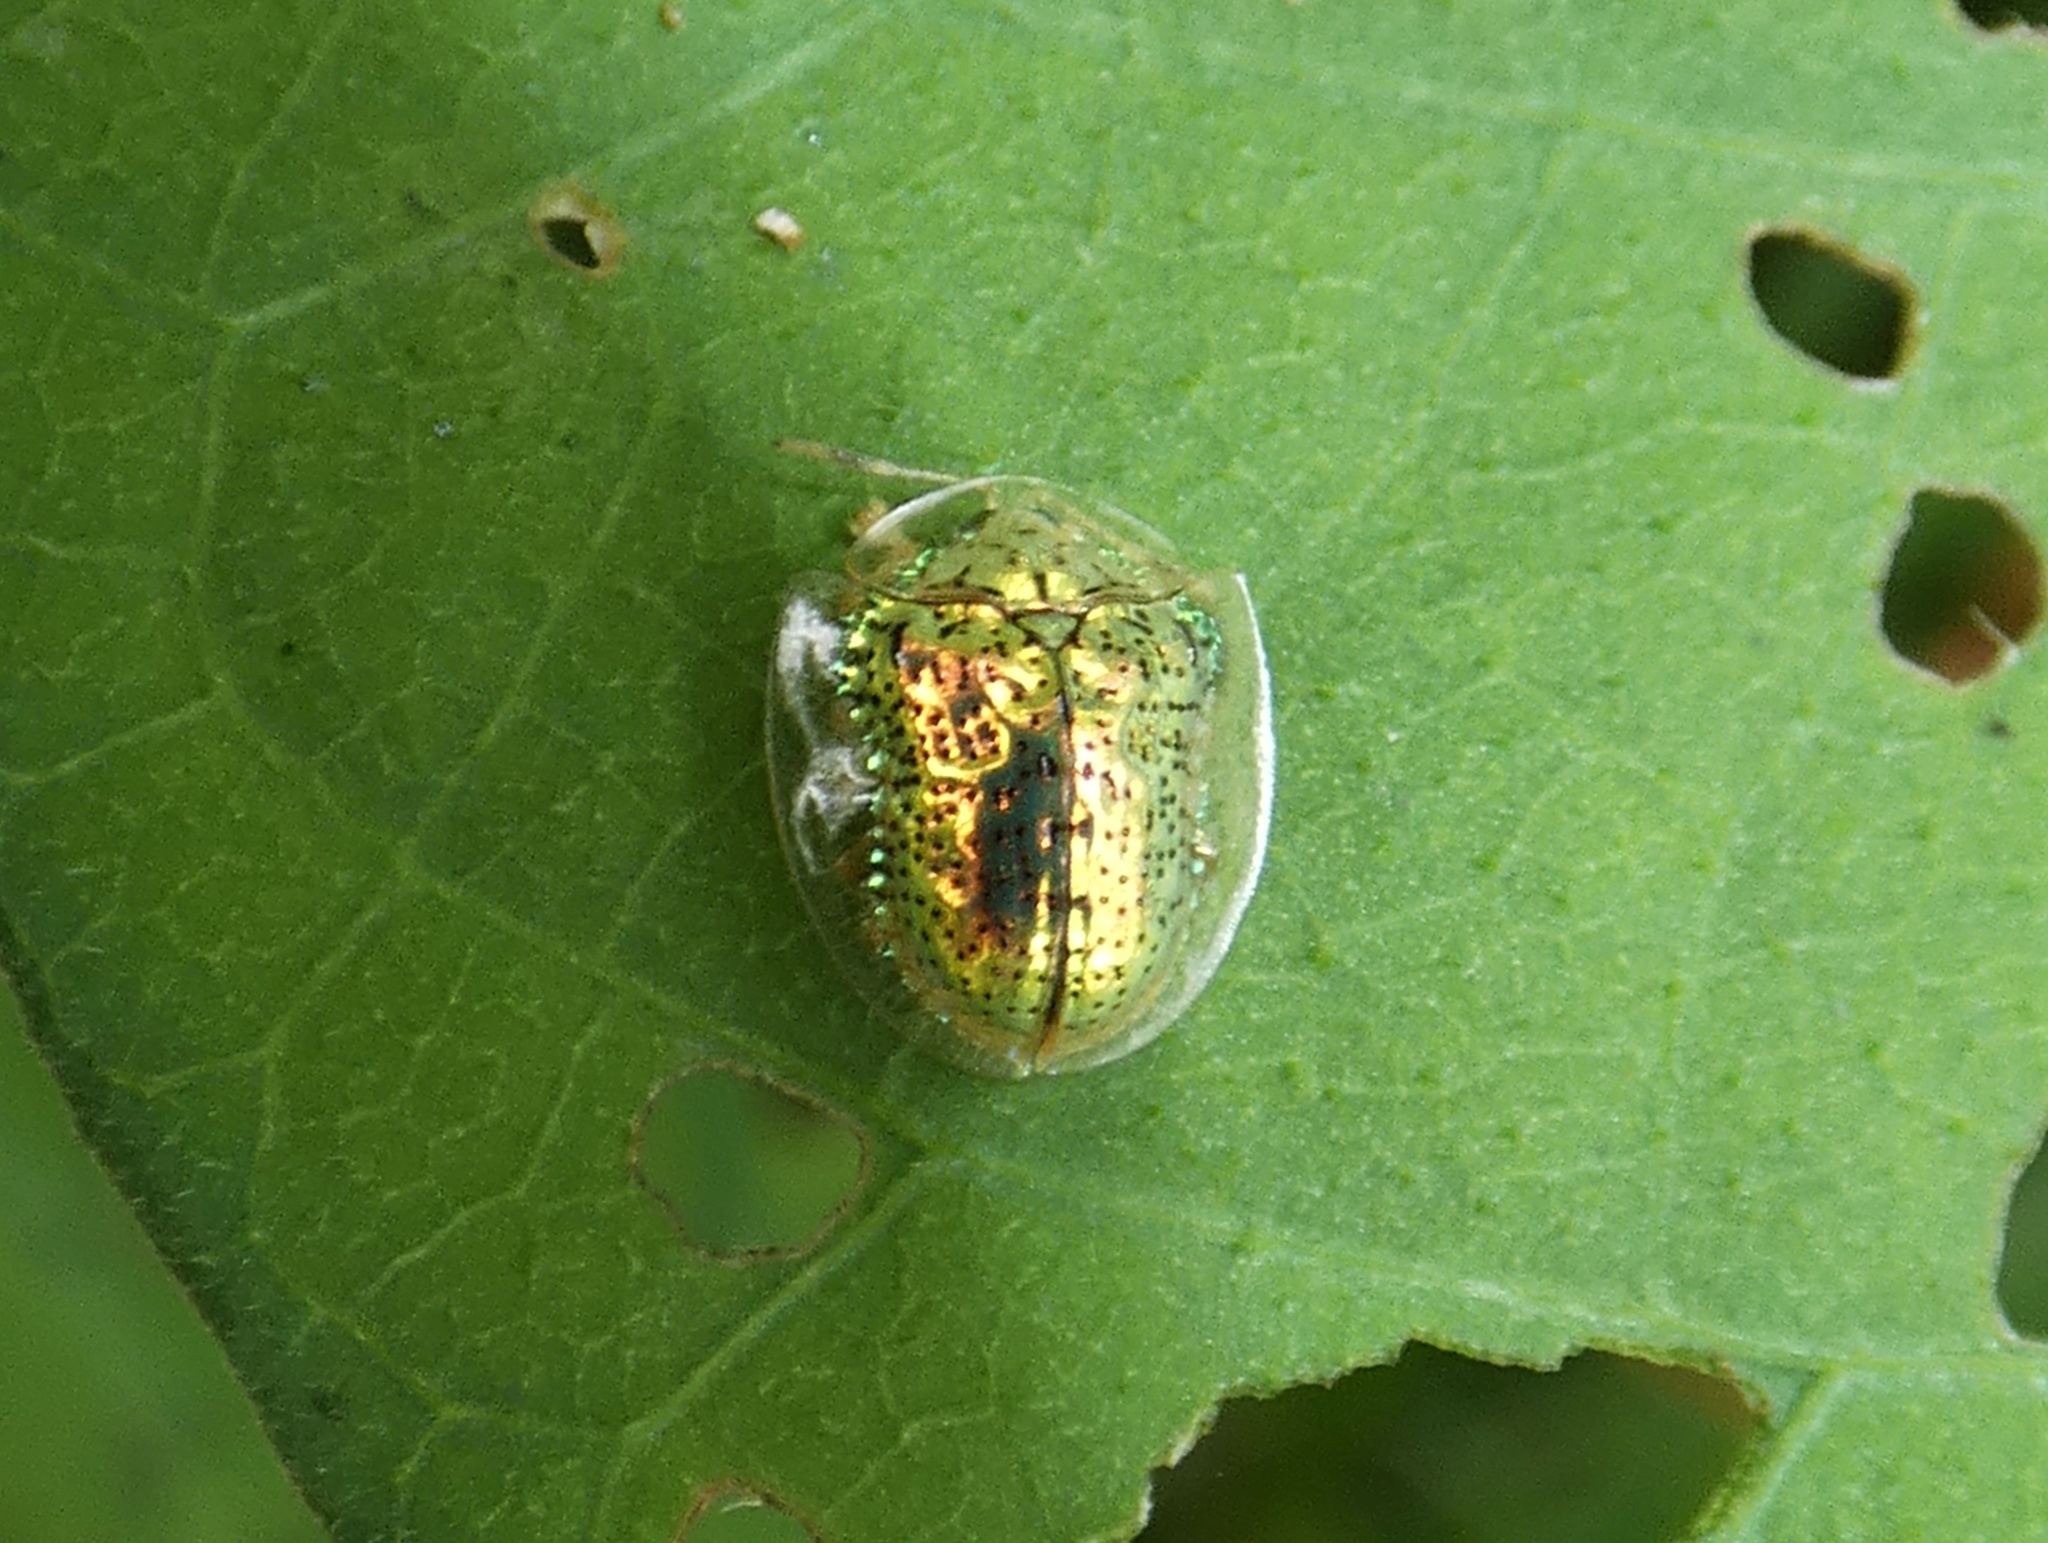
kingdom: Animalia
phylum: Arthropoda
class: Insecta
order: Coleoptera
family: Chrysomelidae
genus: Microctenochira
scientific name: Microctenochira aspersa
